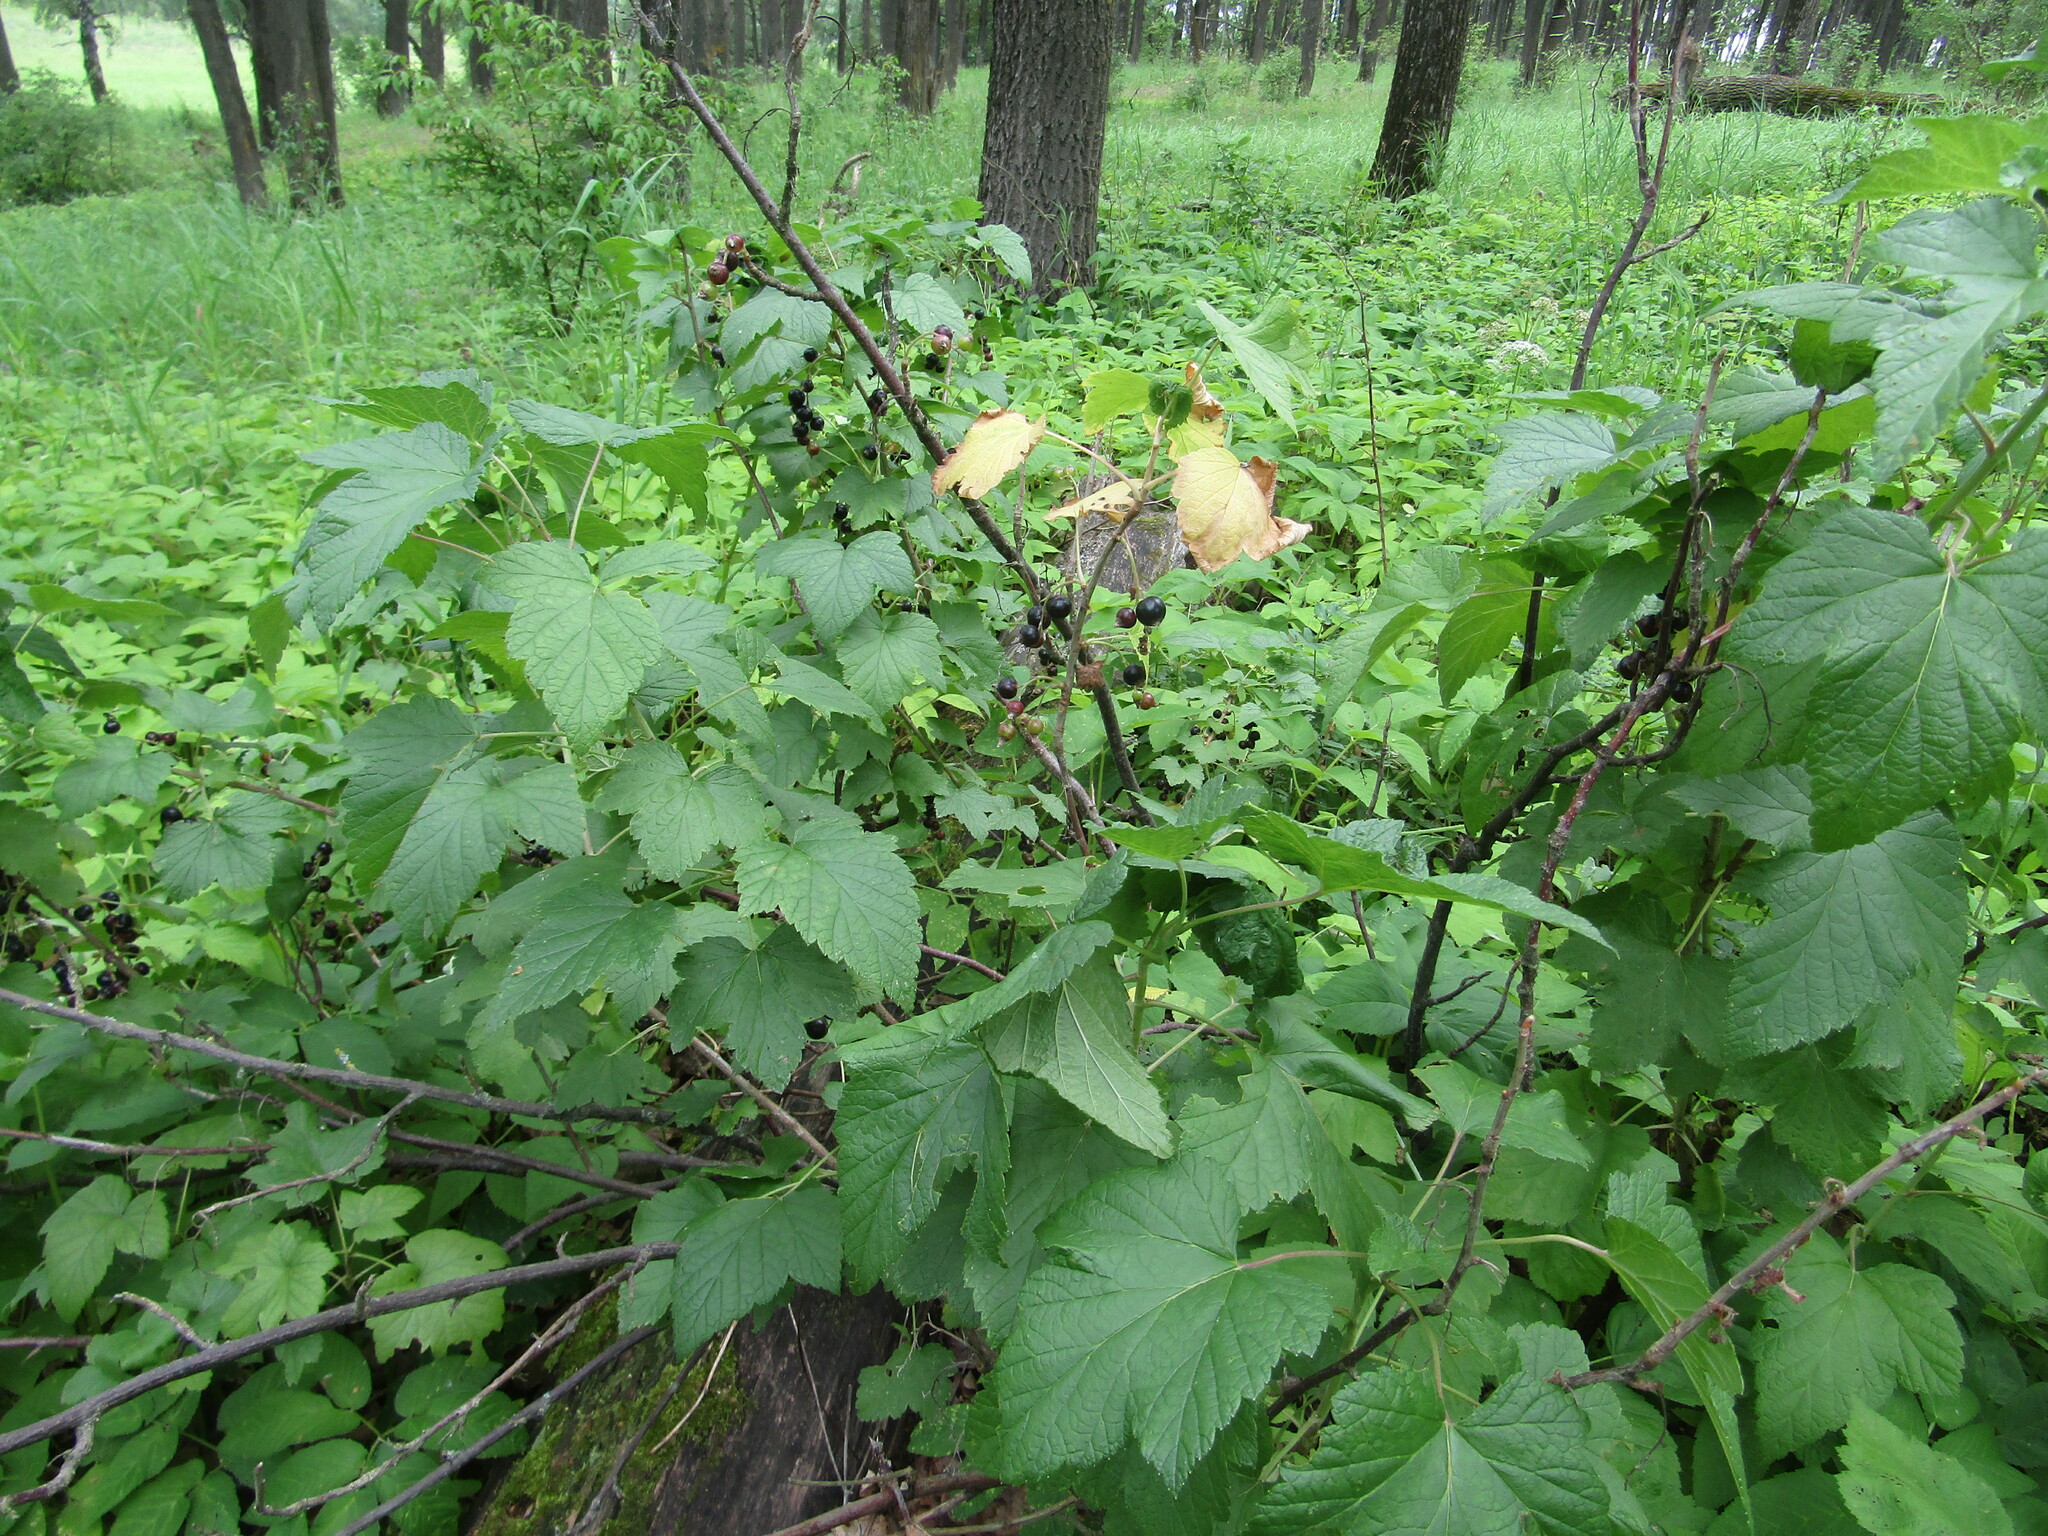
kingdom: Plantae
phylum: Tracheophyta
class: Magnoliopsida
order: Saxifragales
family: Grossulariaceae
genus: Ribes
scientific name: Ribes nigrum
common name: Black currant
